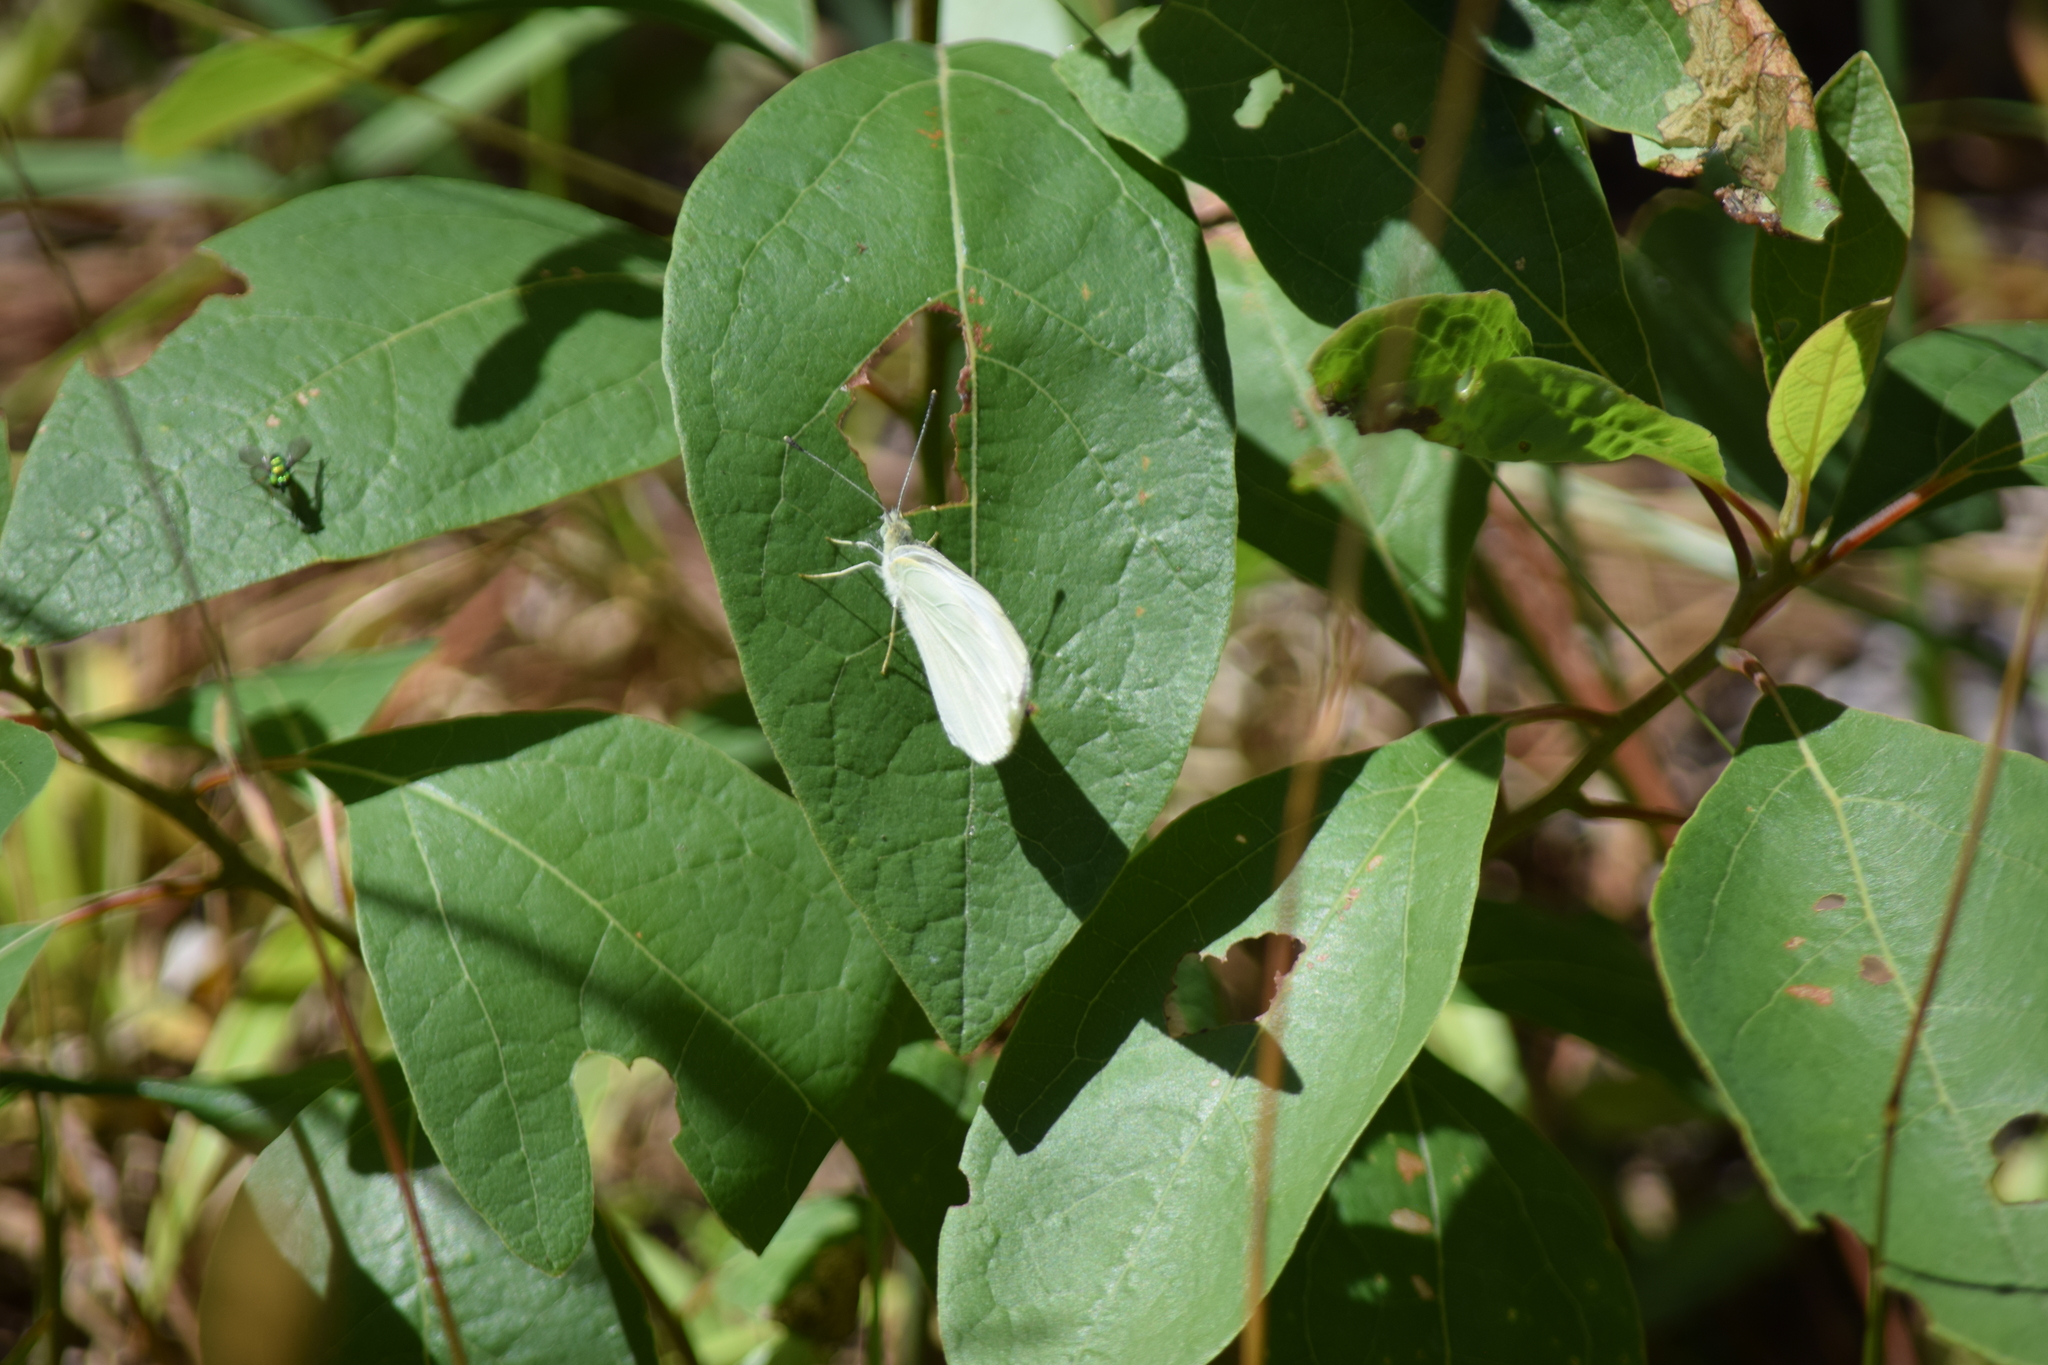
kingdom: Animalia
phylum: Arthropoda
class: Insecta
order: Lepidoptera
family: Pieridae
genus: Pieris
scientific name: Pieris rapae
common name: Small white
